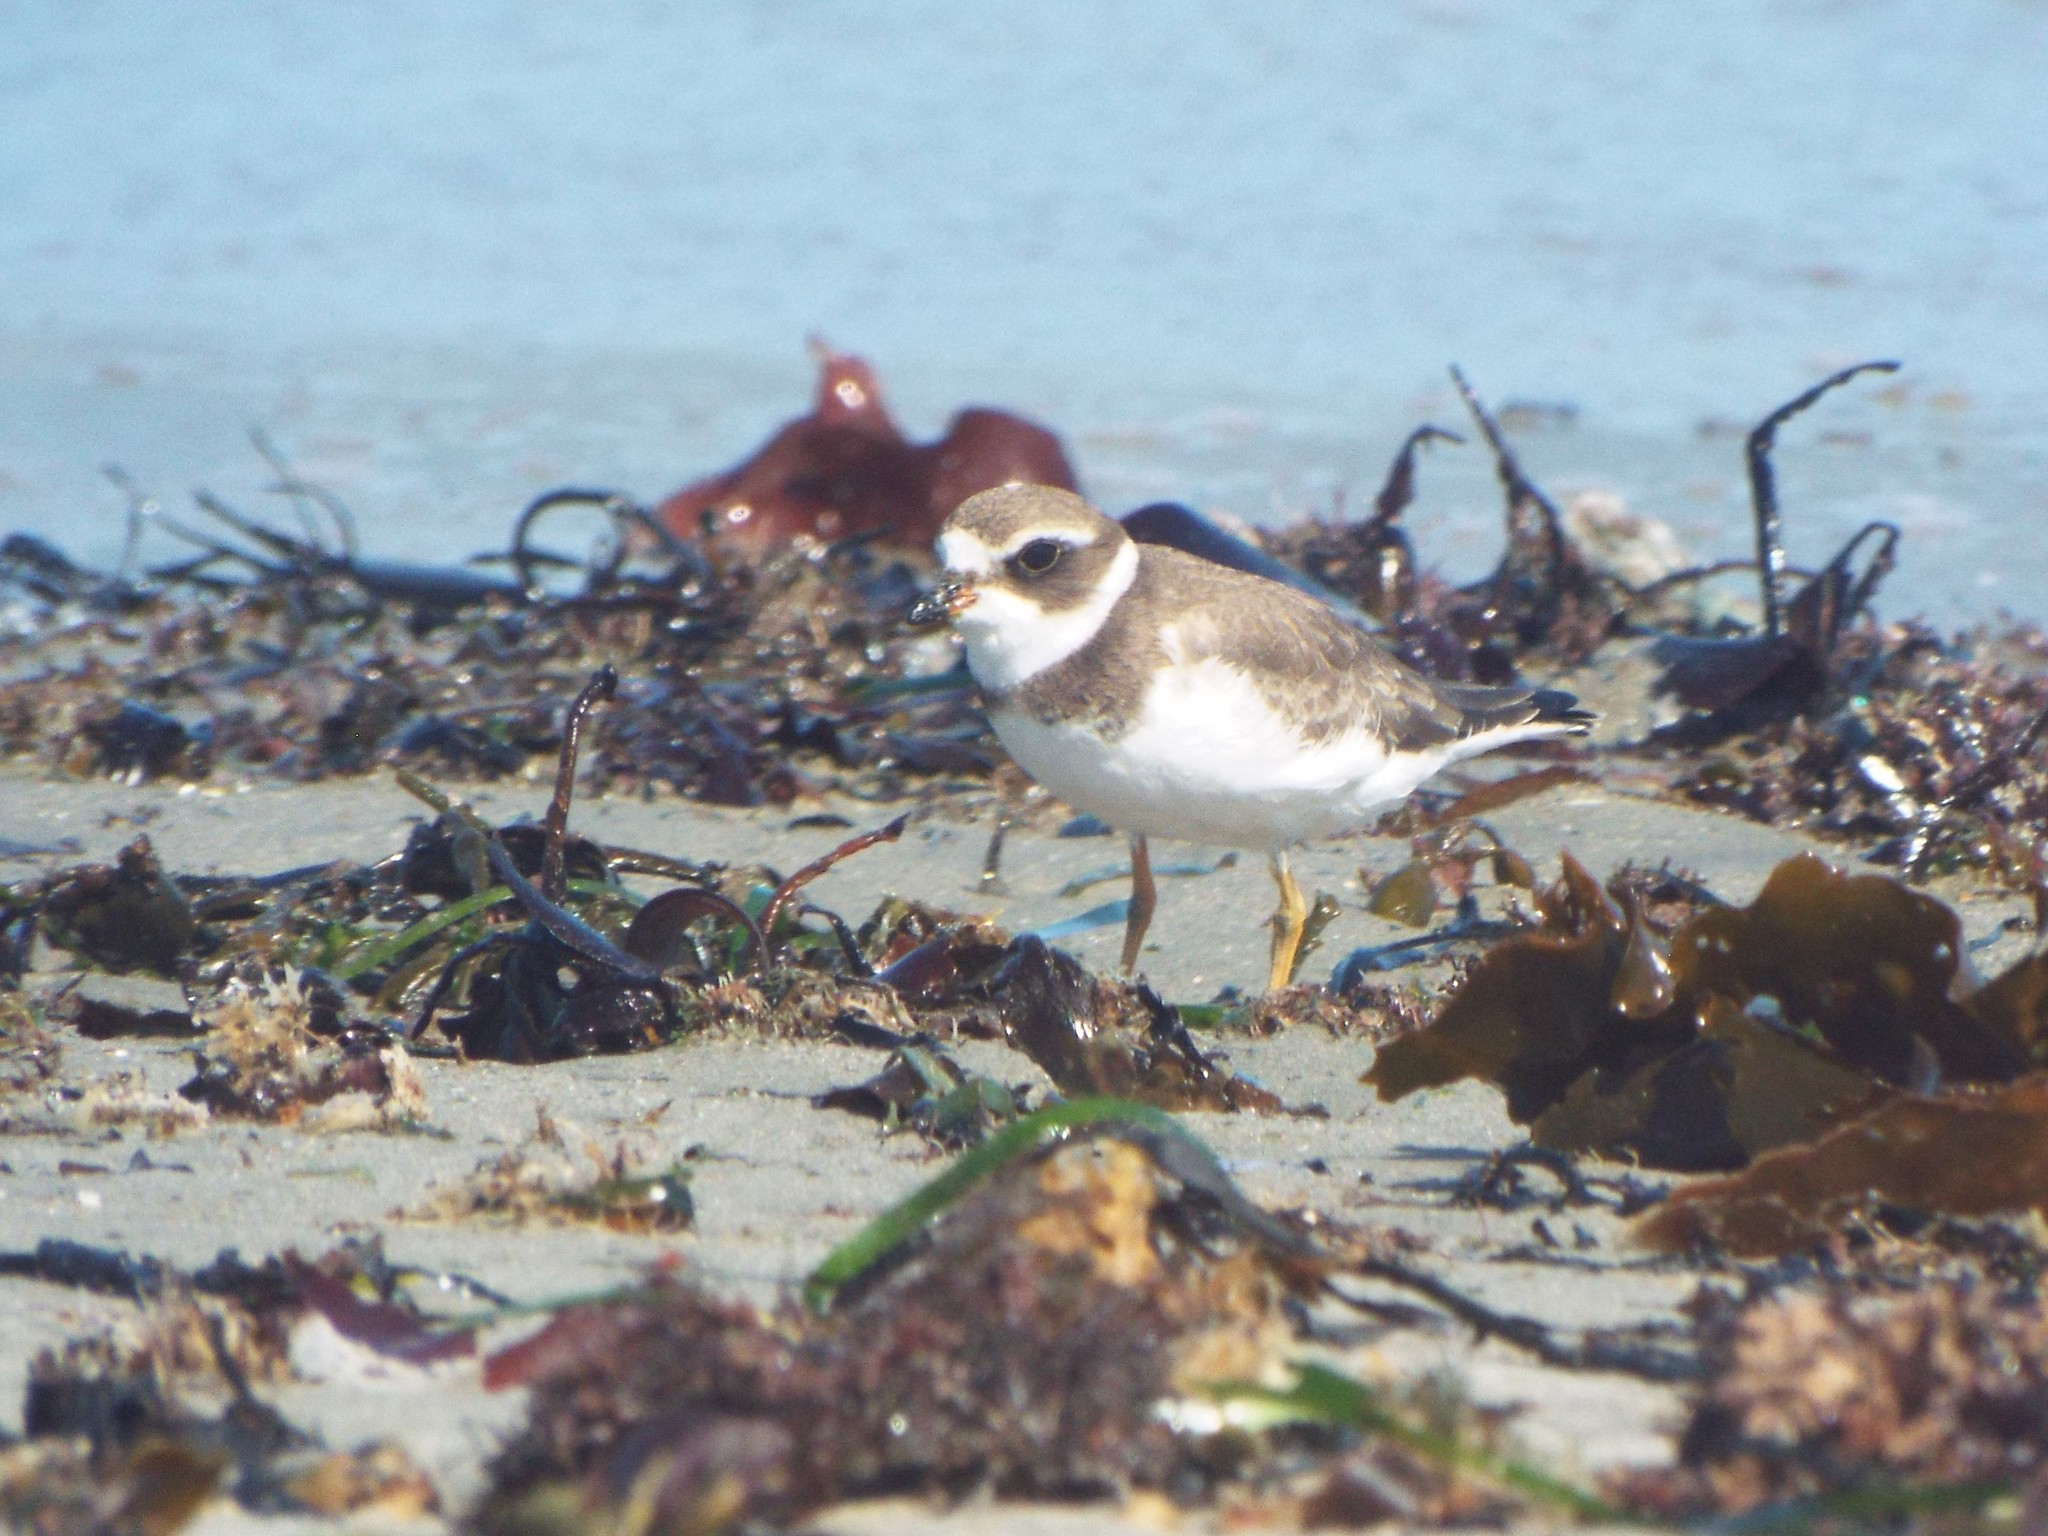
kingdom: Animalia
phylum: Chordata
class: Aves
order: Charadriiformes
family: Charadriidae
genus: Charadrius
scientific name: Charadrius semipalmatus
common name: Semipalmated plover
